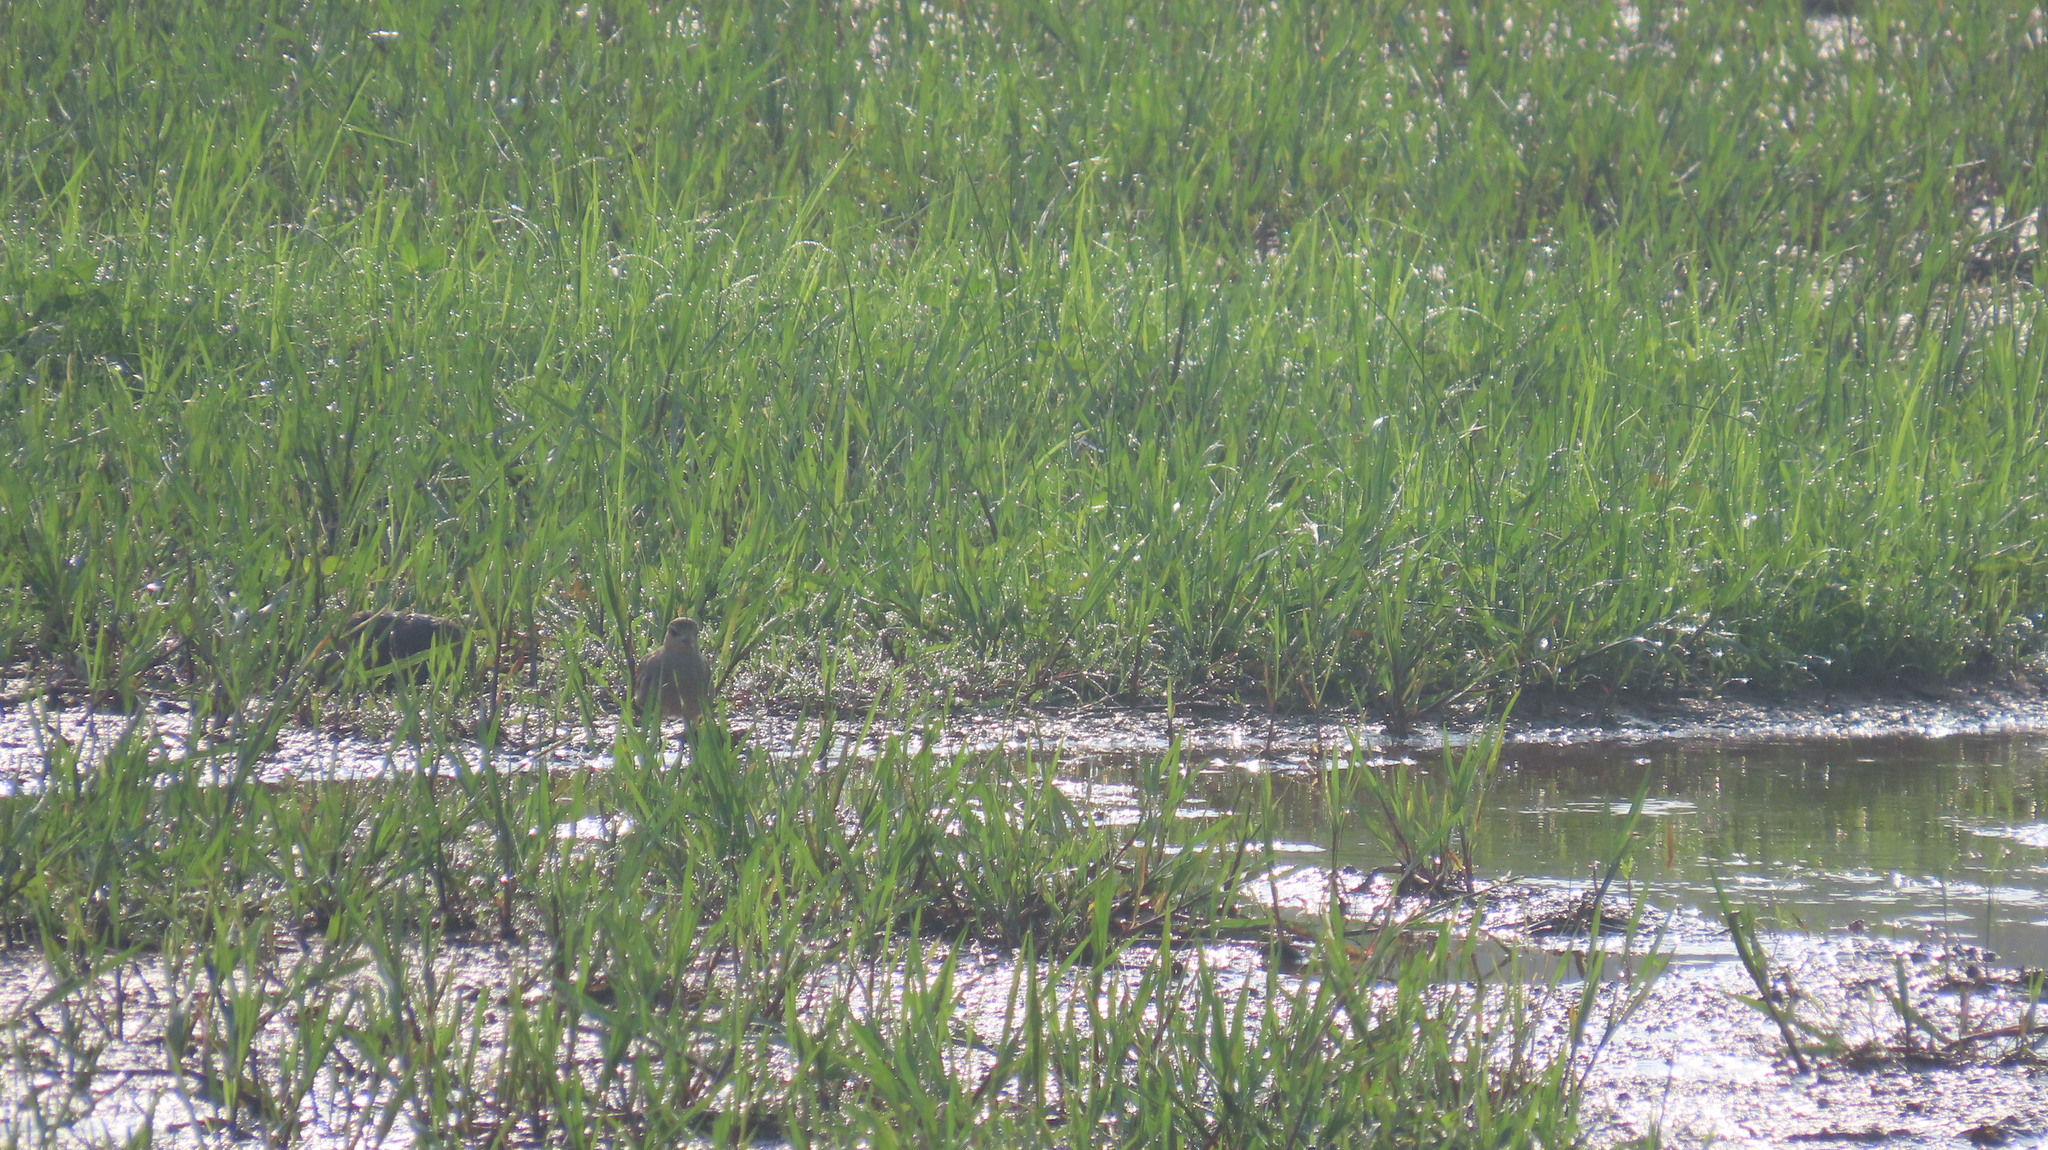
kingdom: Animalia
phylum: Chordata
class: Aves
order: Charadriiformes
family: Charadriidae
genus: Pluvialis
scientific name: Pluvialis fulva
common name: Pacific golden plover
